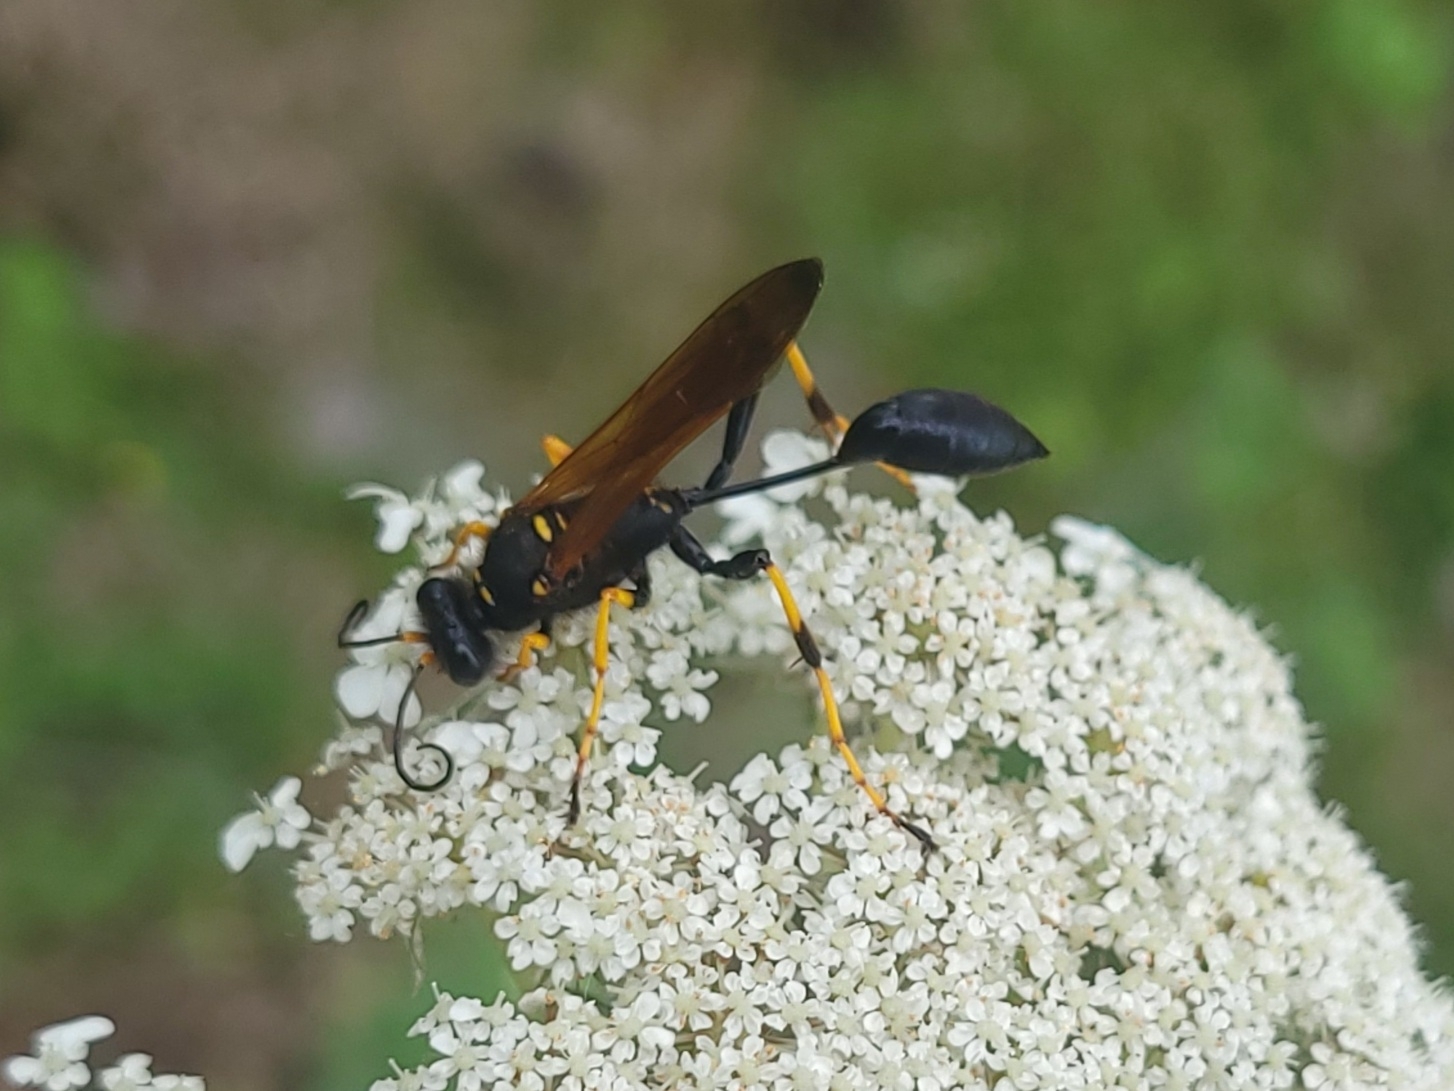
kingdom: Animalia
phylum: Arthropoda
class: Insecta
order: Hymenoptera
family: Sphecidae
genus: Sceliphron
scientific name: Sceliphron caementarium
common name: Mud dauber
